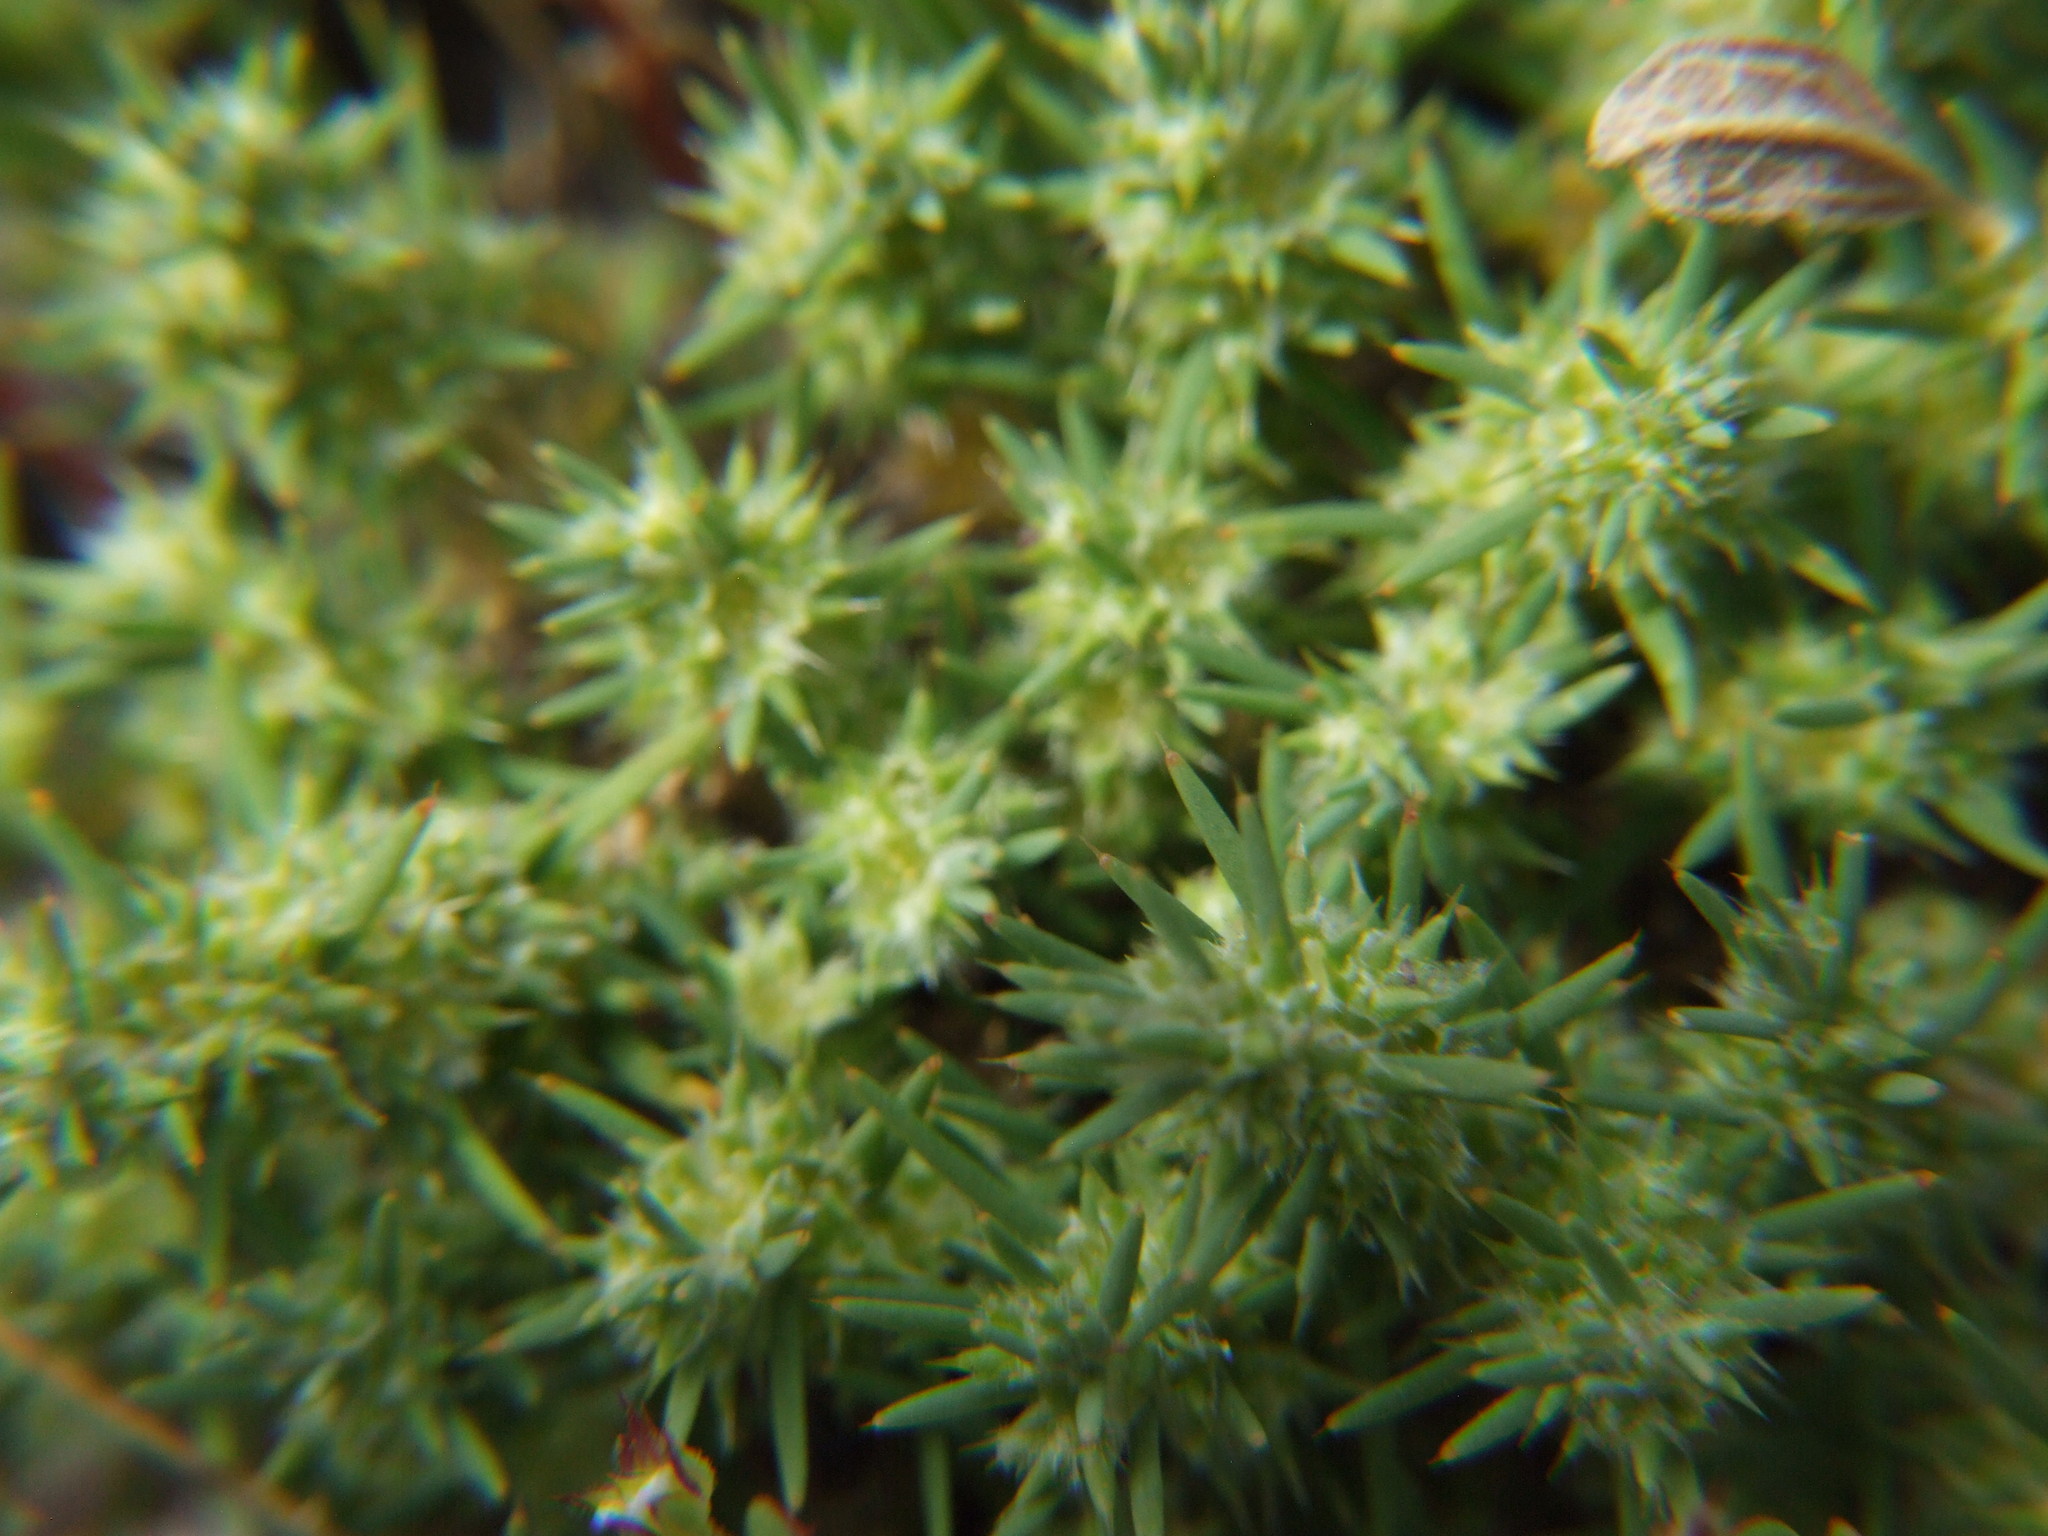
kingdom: Plantae
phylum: Tracheophyta
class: Magnoliopsida
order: Caryophyllales
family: Caryophyllaceae
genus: Cardionema
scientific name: Cardionema ramosissima
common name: Sandcarpet
